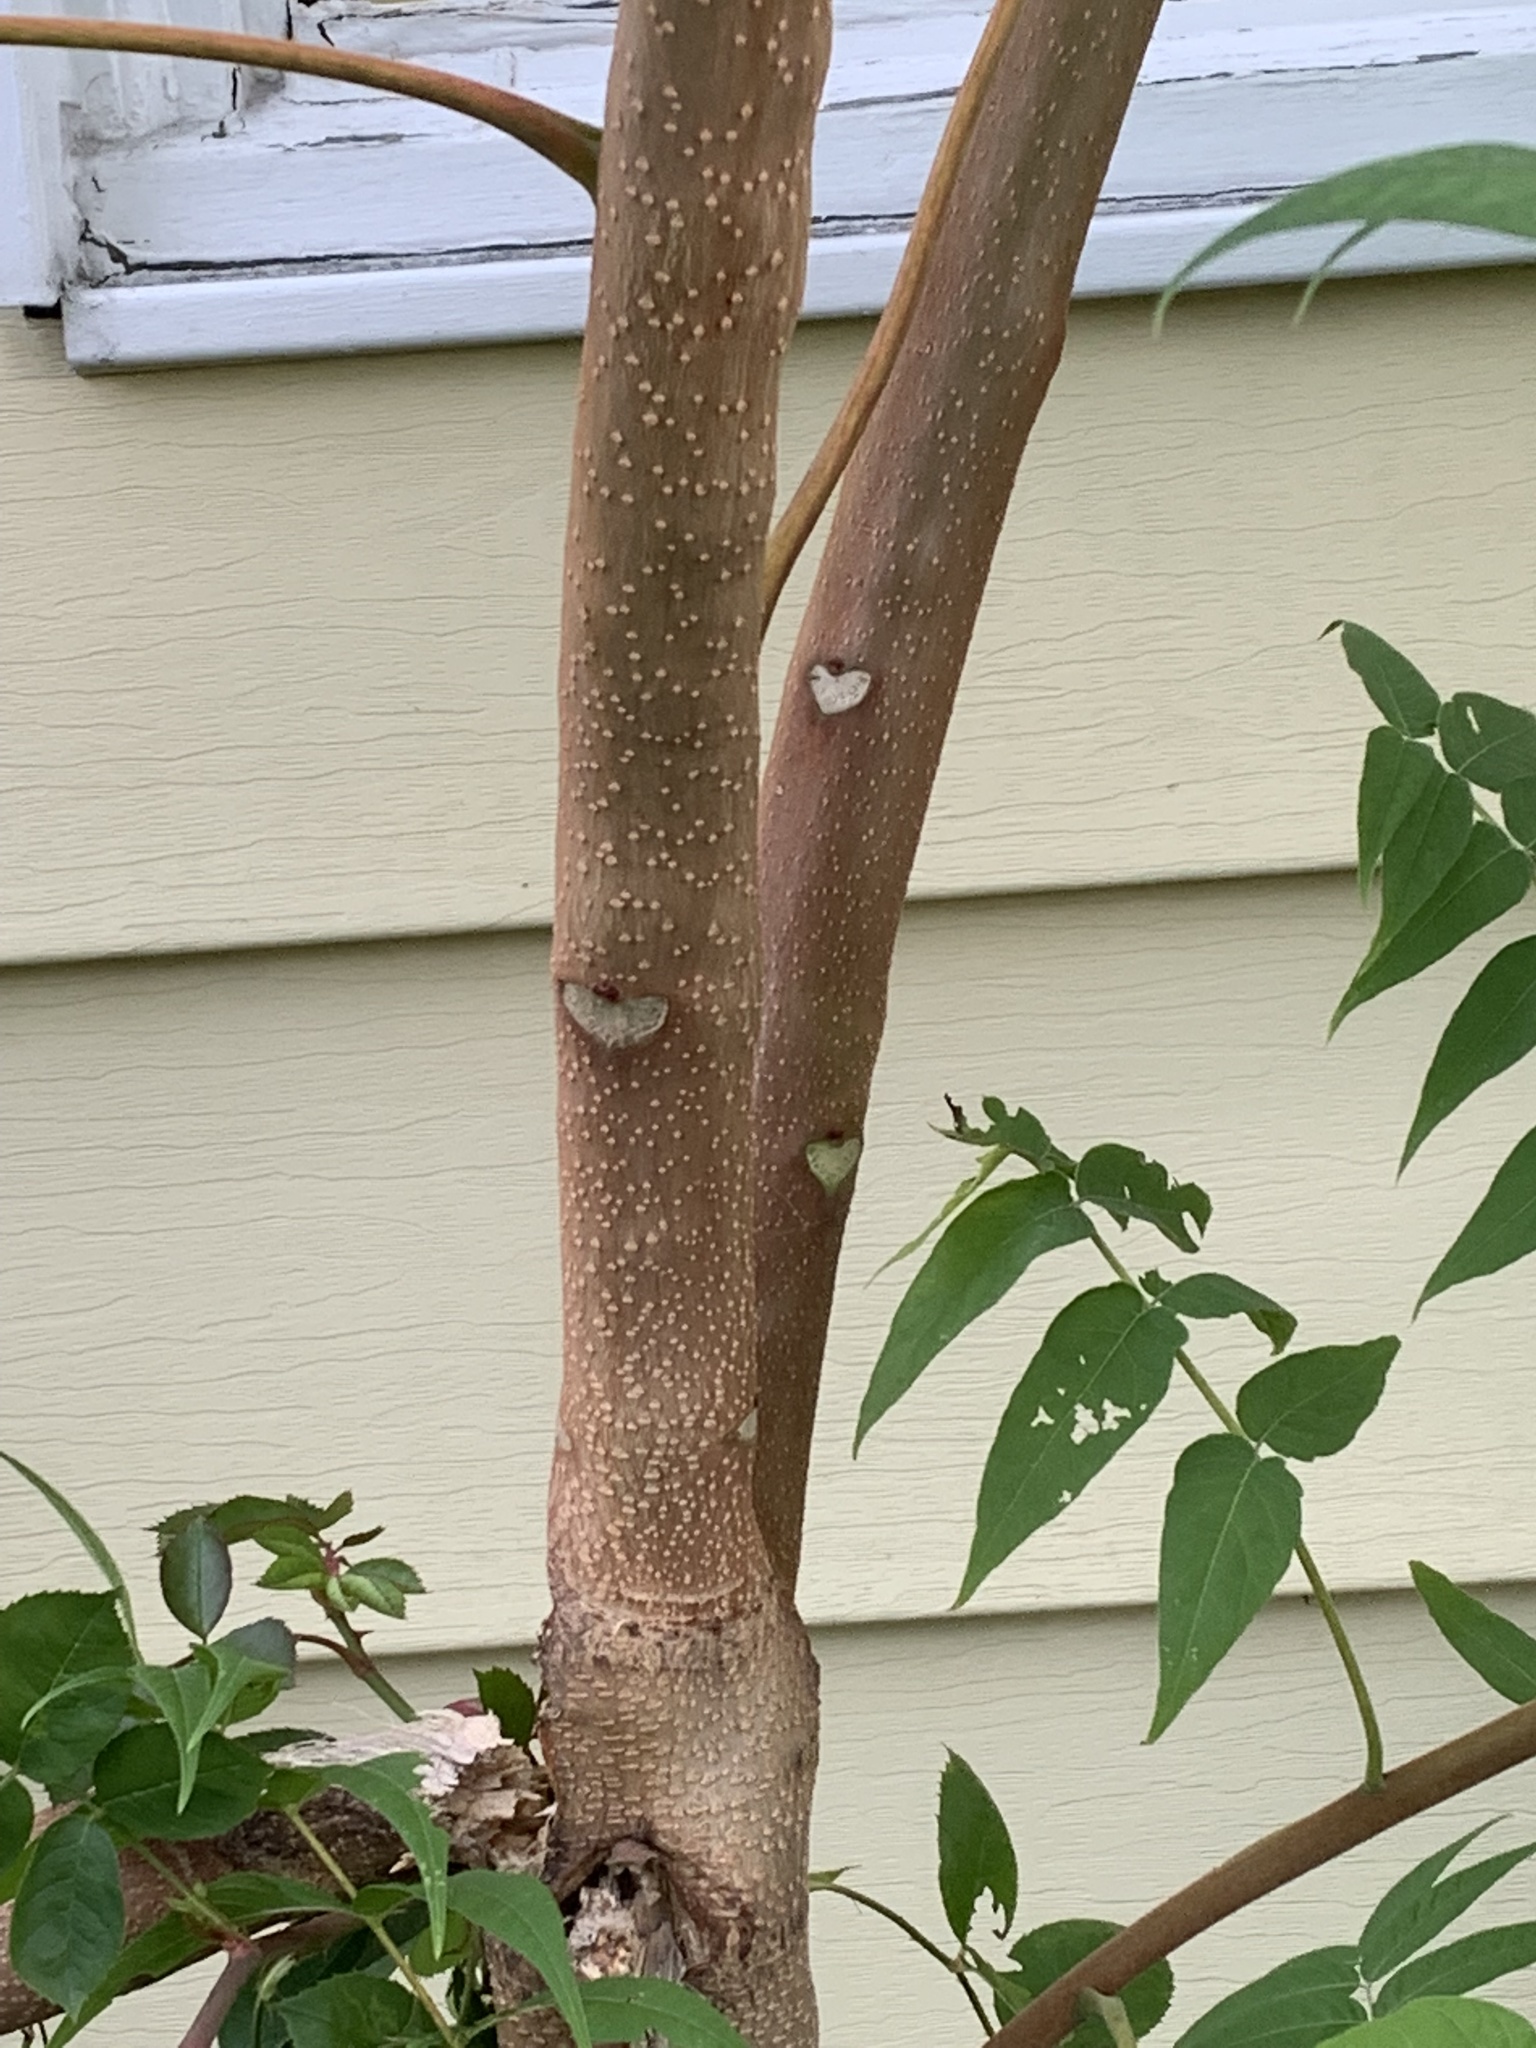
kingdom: Plantae
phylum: Tracheophyta
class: Magnoliopsida
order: Sapindales
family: Simaroubaceae
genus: Ailanthus
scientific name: Ailanthus altissima
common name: Tree-of-heaven
